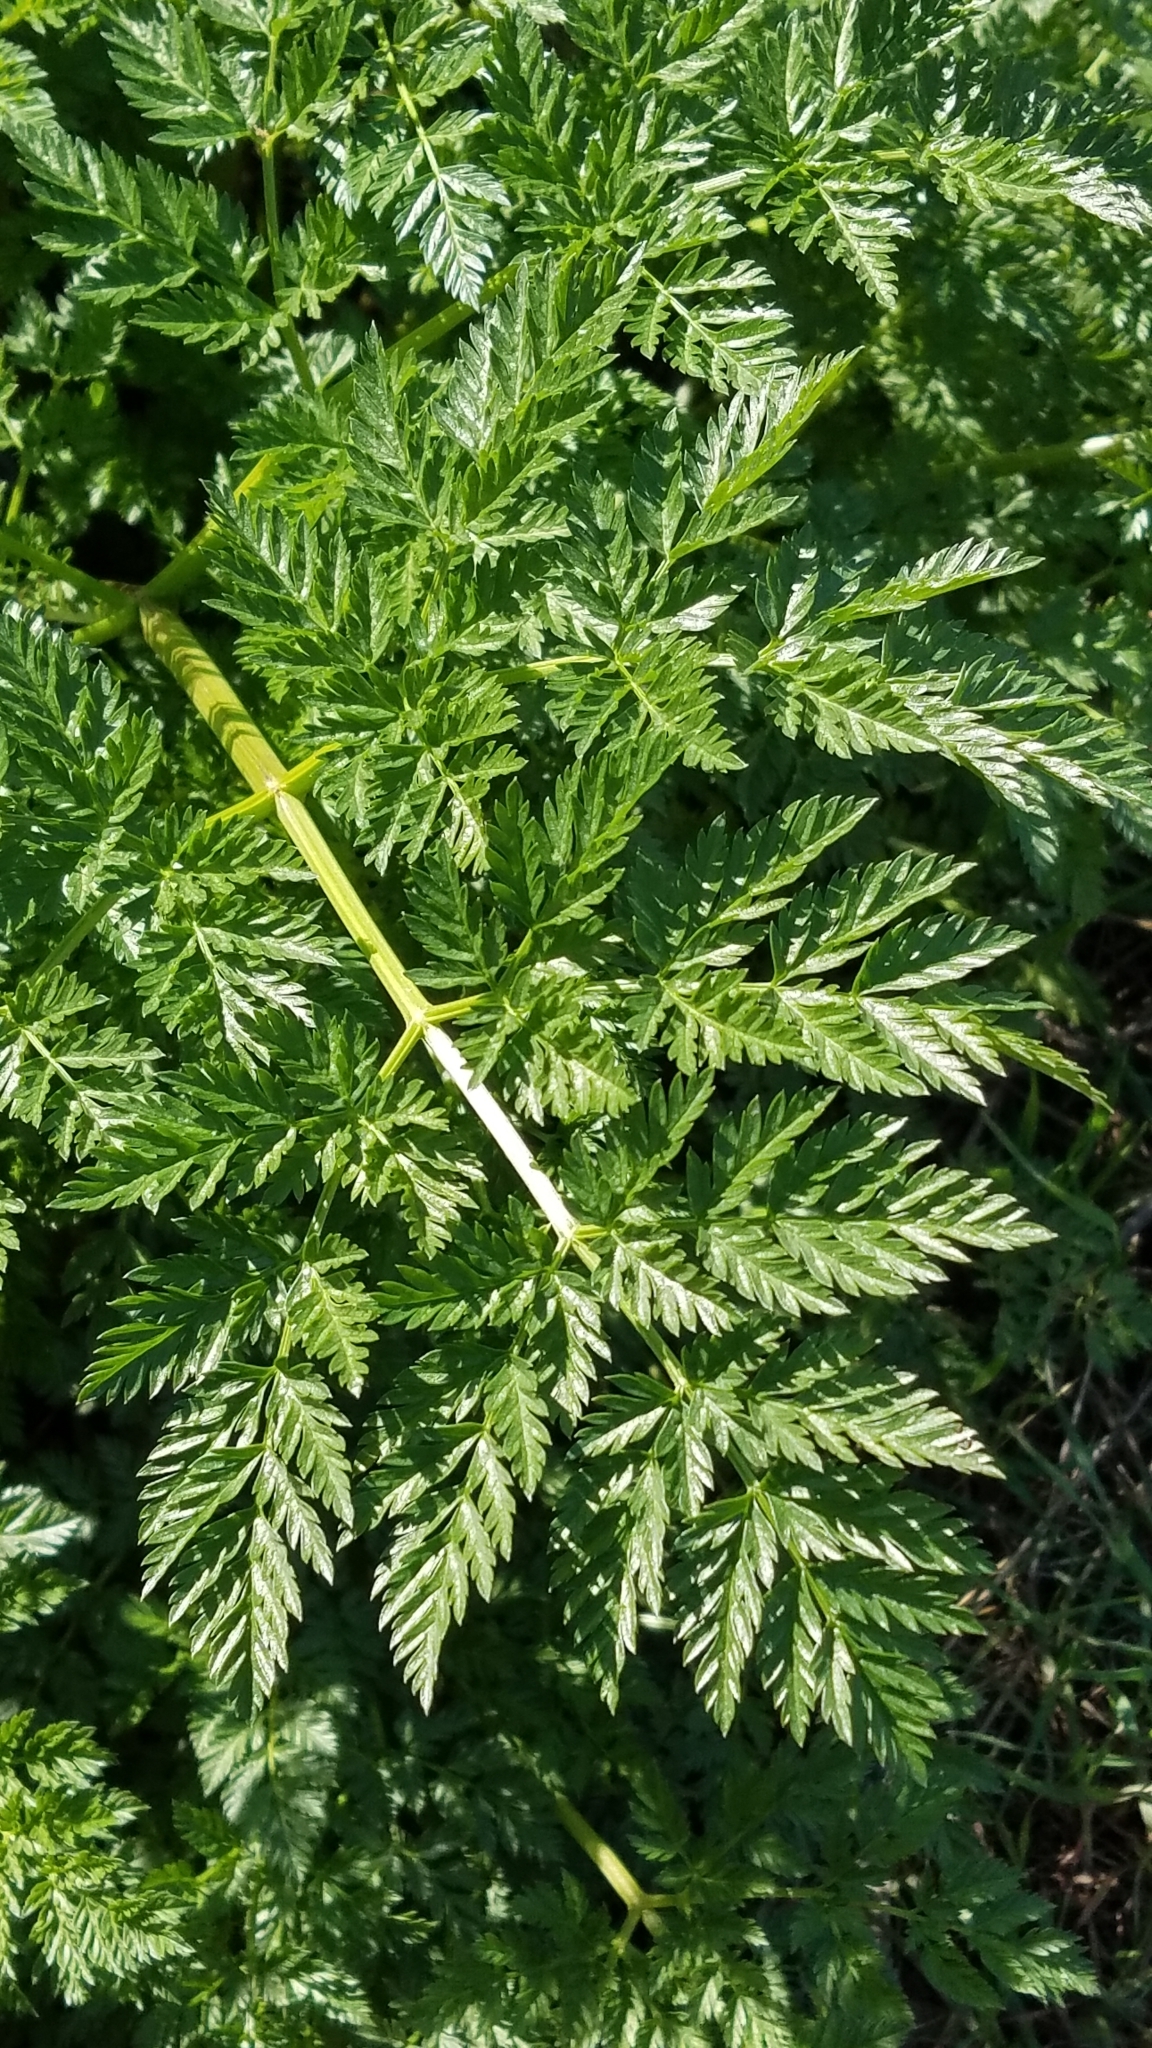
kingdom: Plantae
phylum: Tracheophyta
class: Magnoliopsida
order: Apiales
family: Apiaceae
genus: Conium
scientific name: Conium maculatum
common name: Hemlock
